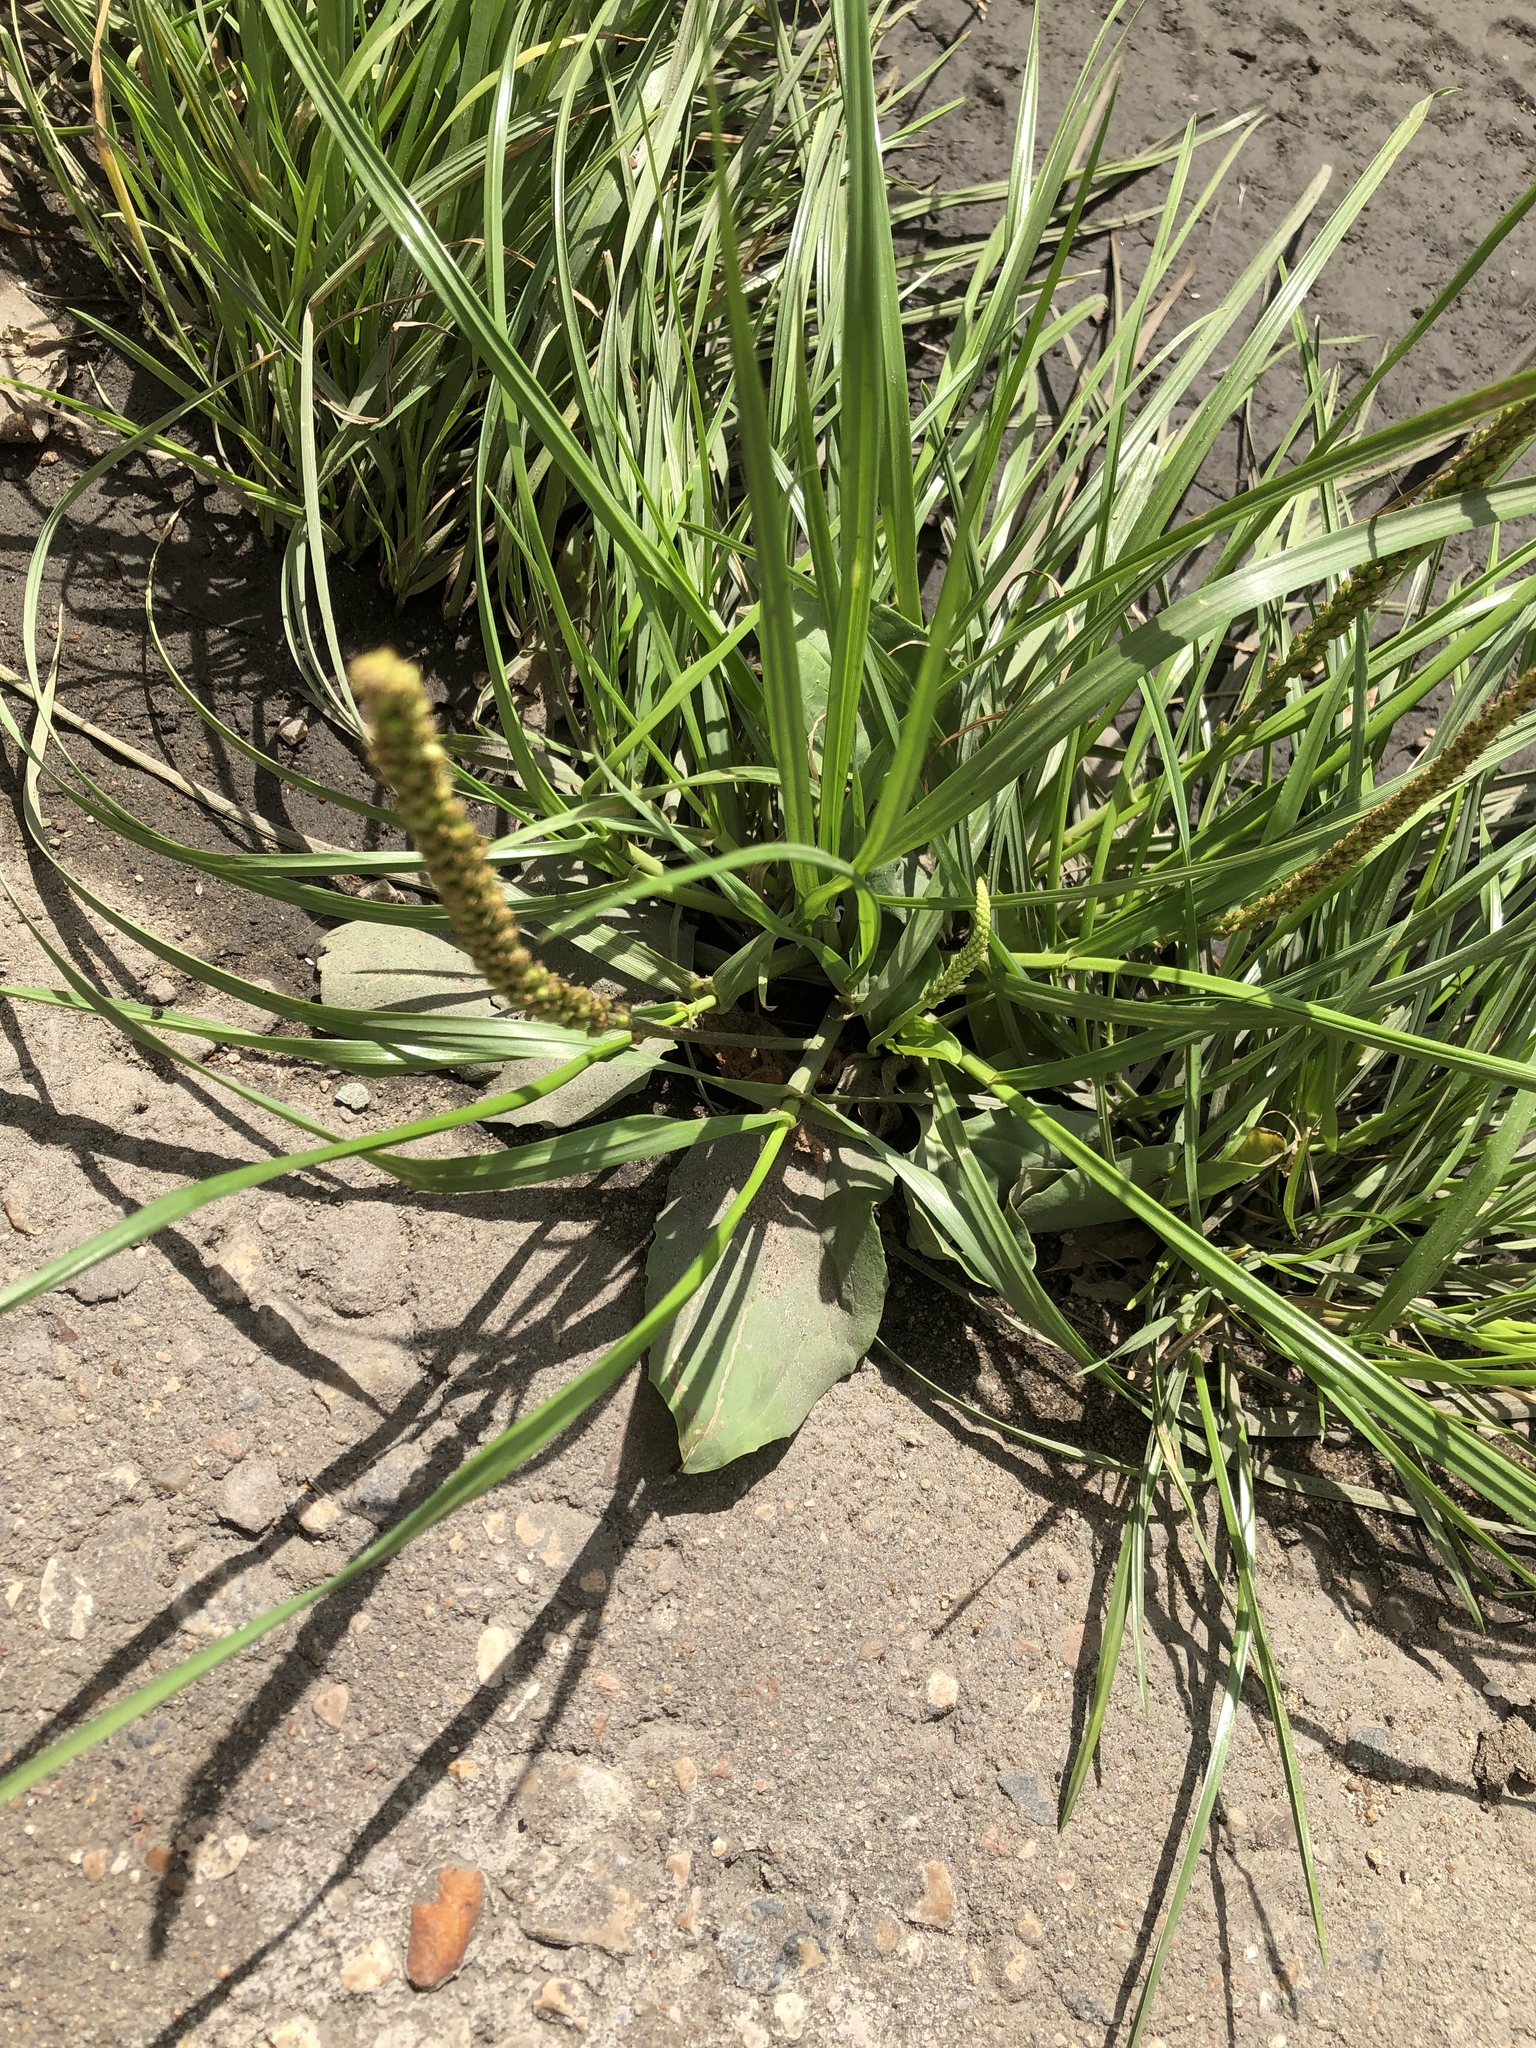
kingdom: Plantae
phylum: Tracheophyta
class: Magnoliopsida
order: Lamiales
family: Plantaginaceae
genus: Plantago
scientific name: Plantago major
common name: Common plantain
